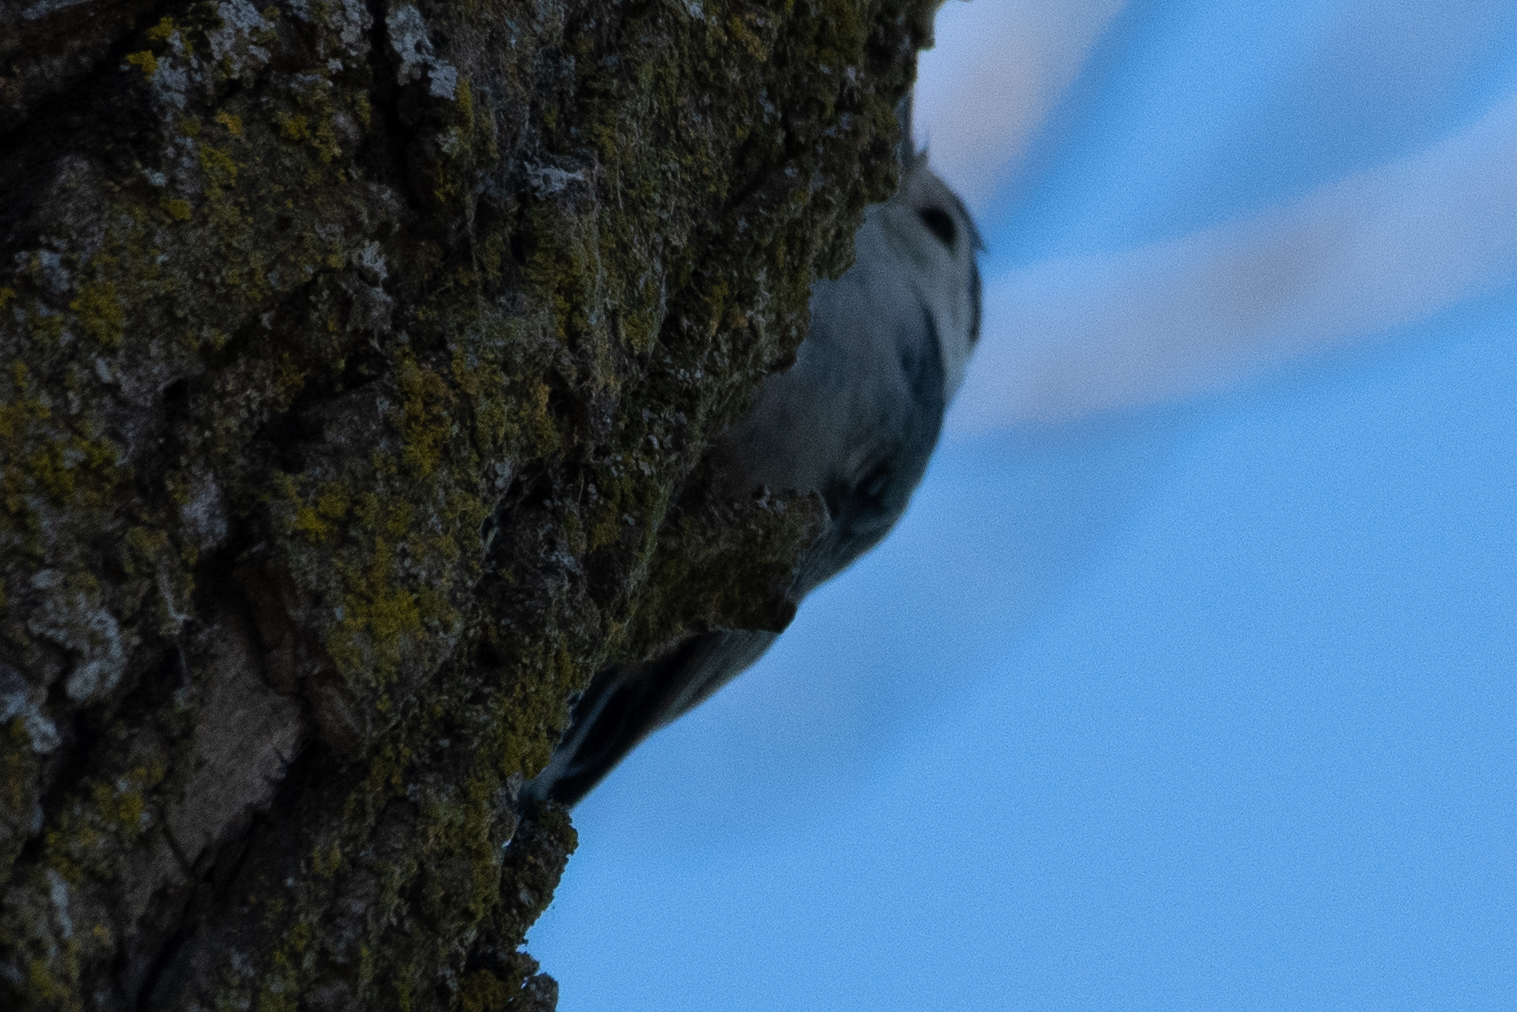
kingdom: Animalia
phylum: Chordata
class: Aves
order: Passeriformes
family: Sittidae
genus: Sitta
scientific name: Sitta carolinensis
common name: White-breasted nuthatch
